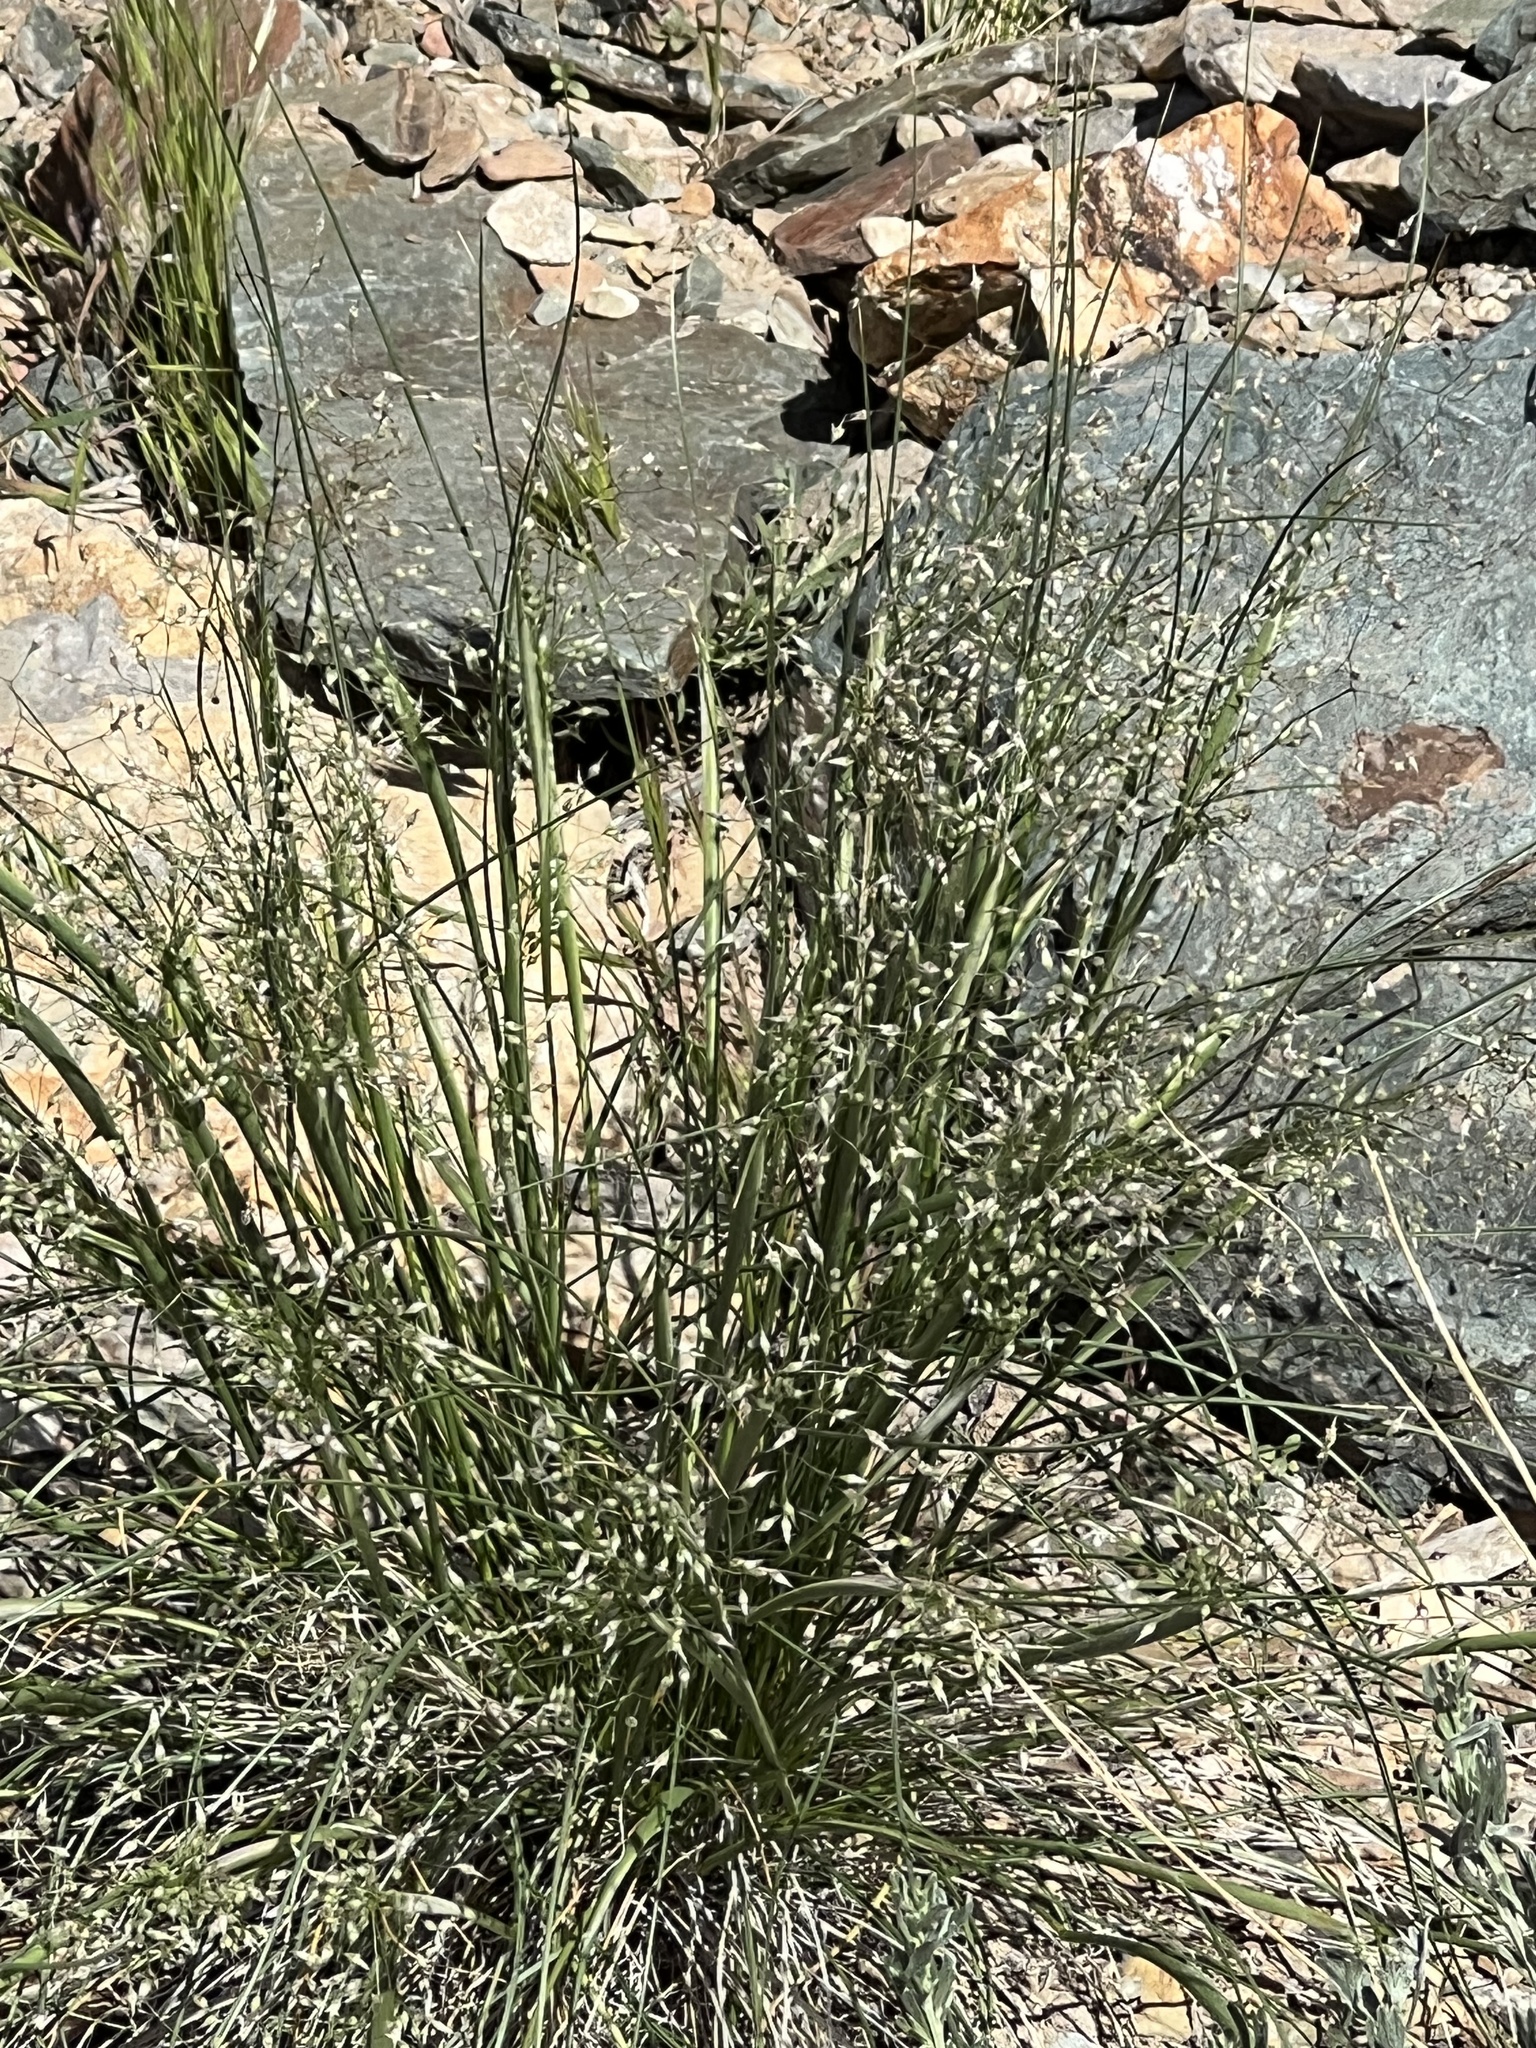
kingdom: Plantae
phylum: Tracheophyta
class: Liliopsida
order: Poales
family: Poaceae
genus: Eriocoma
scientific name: Eriocoma hymenoides
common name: Indian mountain ricegrass
